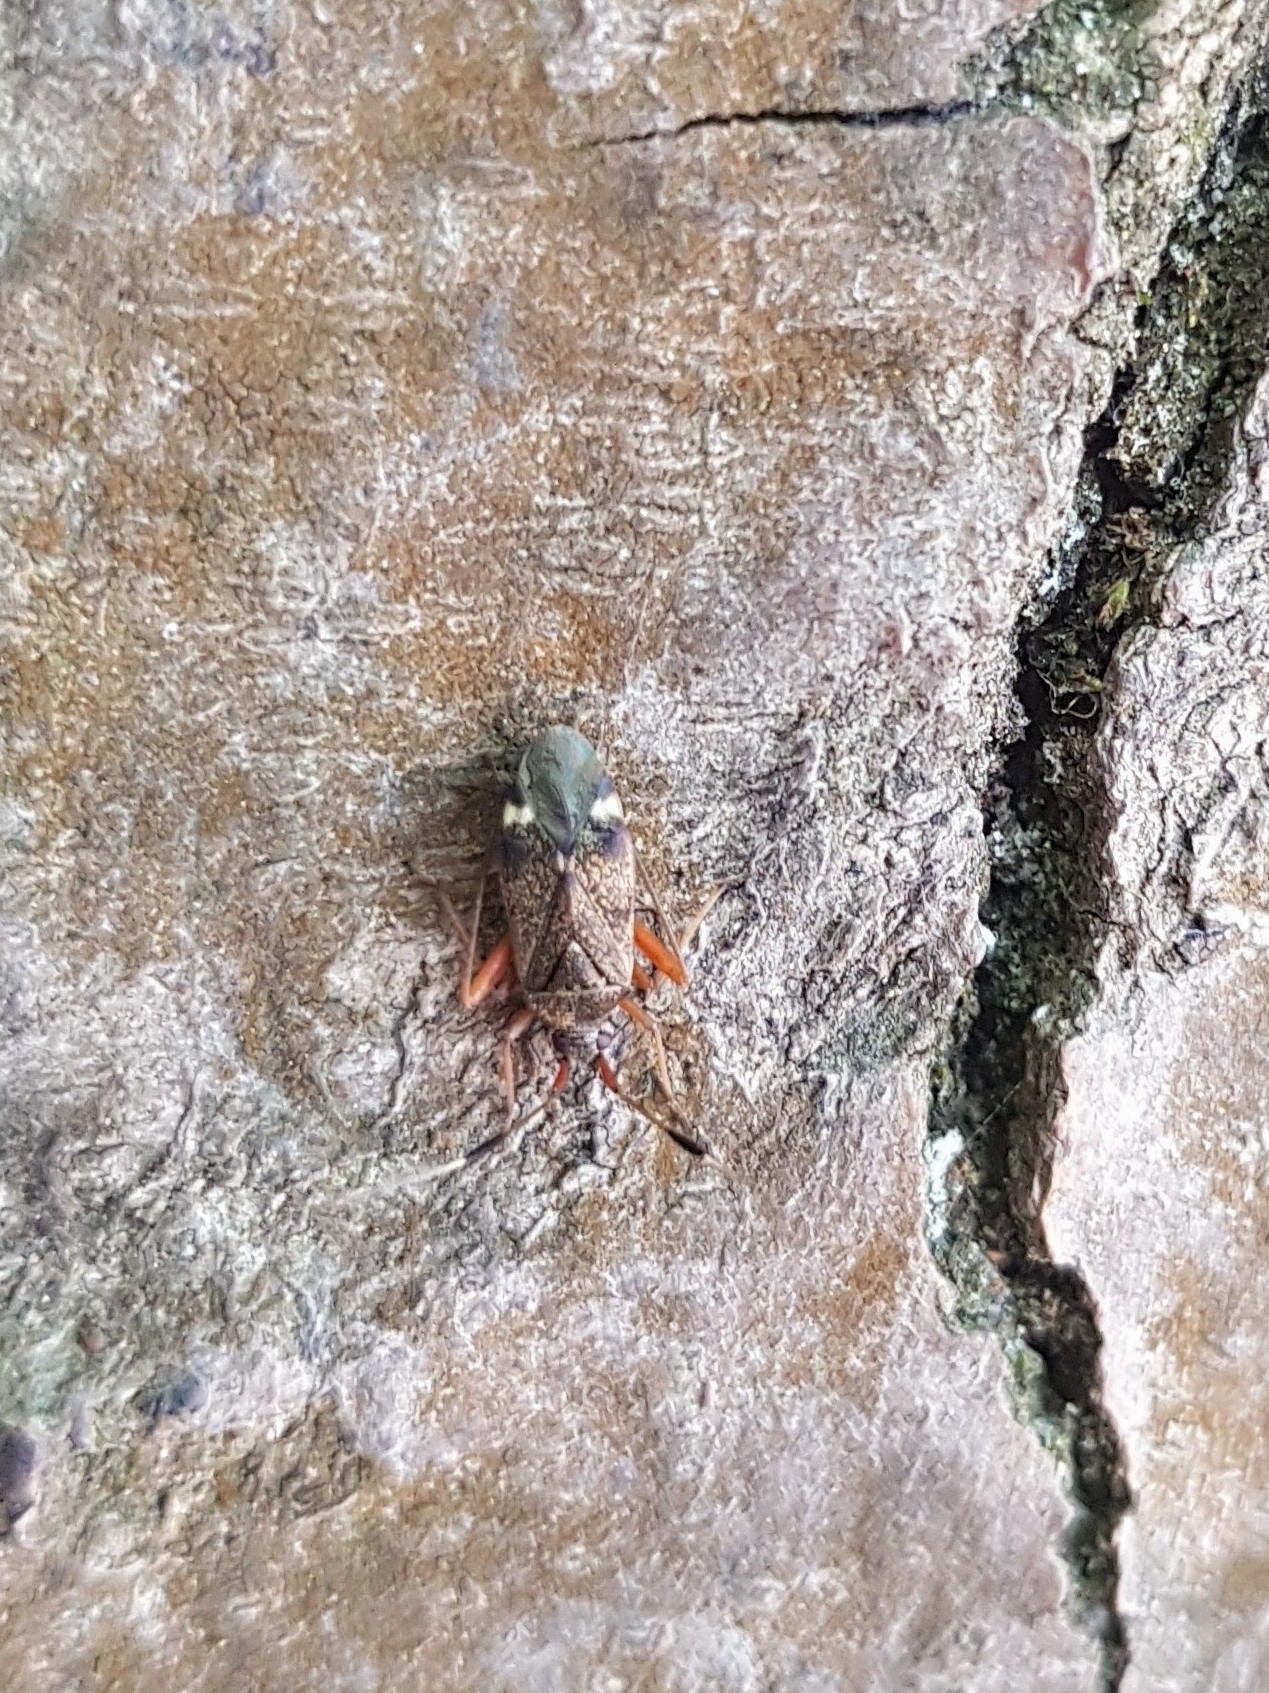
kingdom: Animalia
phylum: Arthropoda
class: Insecta
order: Hemiptera
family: Miridae
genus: Closterotomus
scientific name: Closterotomus biclavatus
